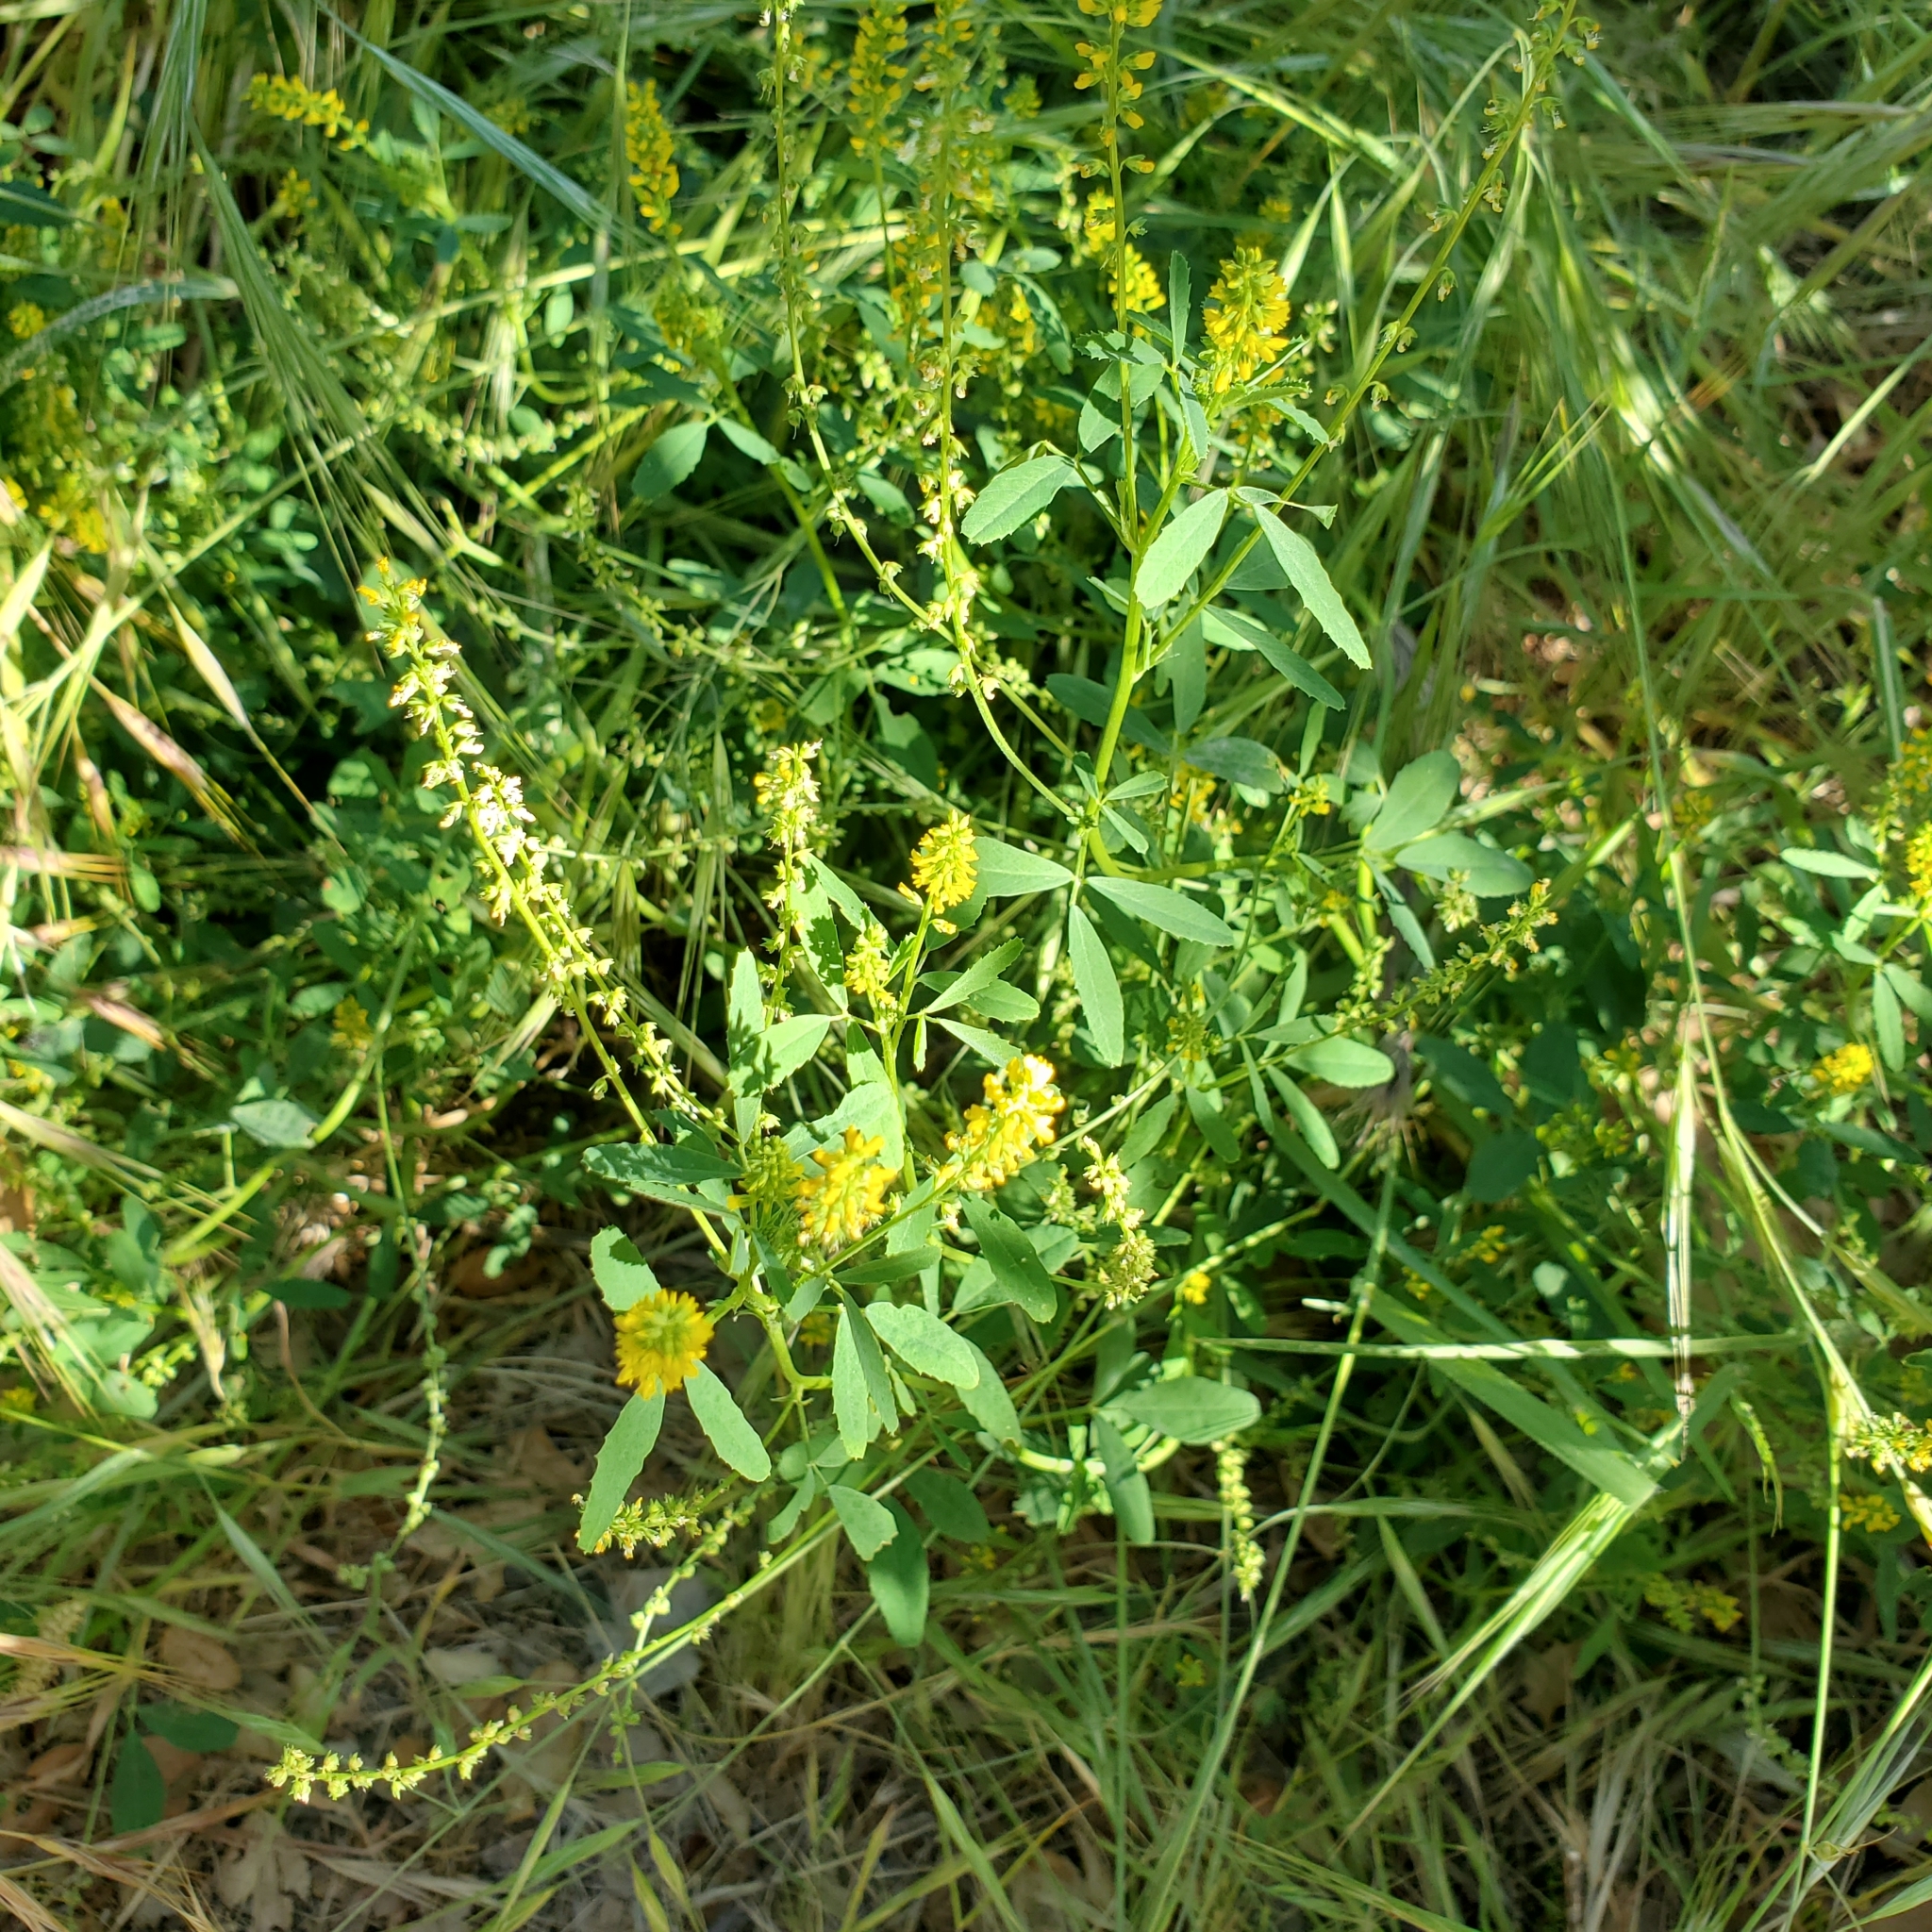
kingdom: Plantae
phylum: Tracheophyta
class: Magnoliopsida
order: Fabales
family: Fabaceae
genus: Melilotus
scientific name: Melilotus indicus
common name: Small melilot
